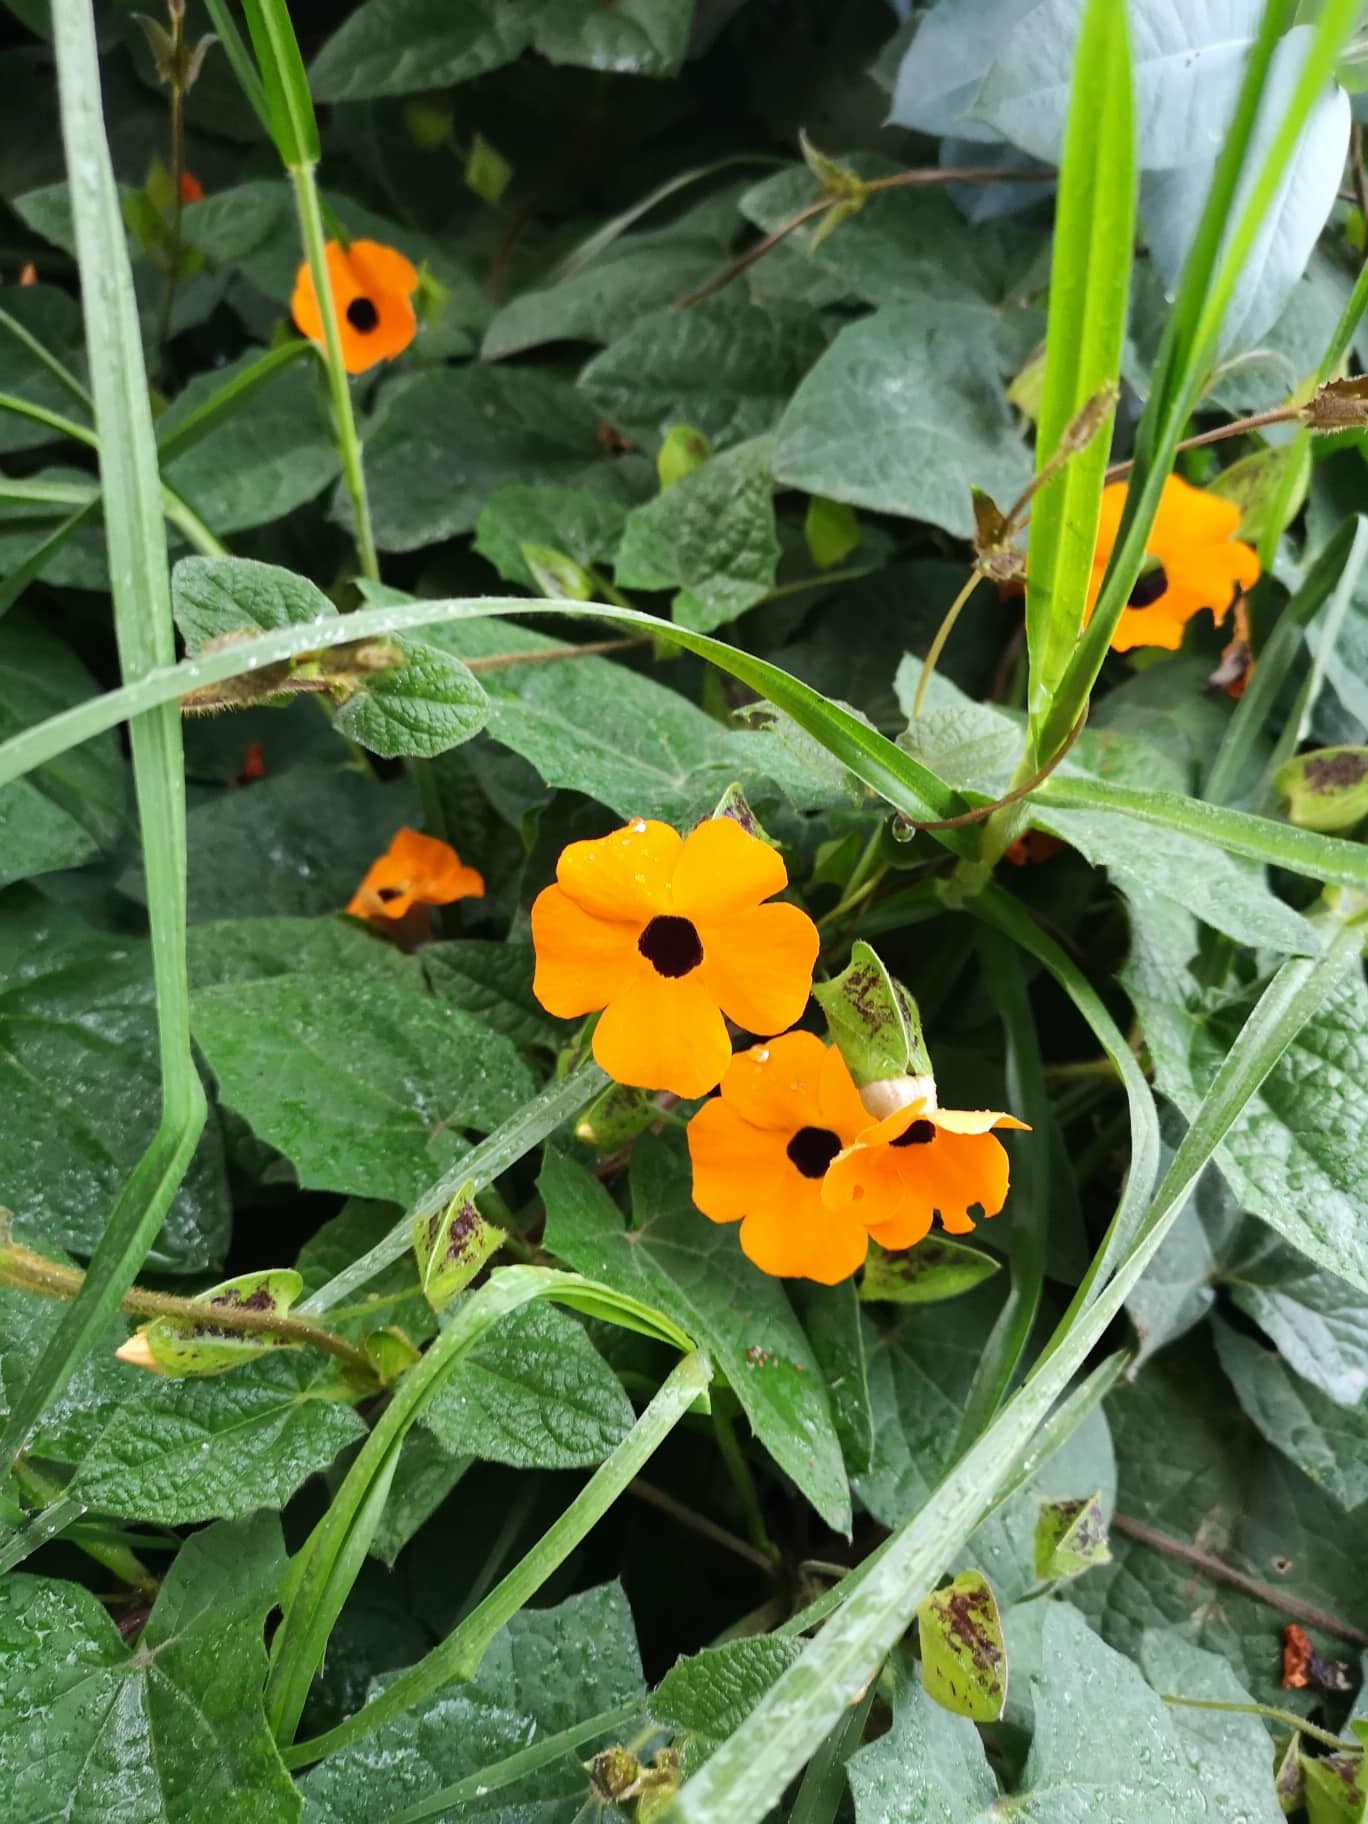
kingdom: Plantae
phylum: Tracheophyta
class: Magnoliopsida
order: Lamiales
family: Acanthaceae
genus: Thunbergia
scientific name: Thunbergia alata
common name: Blackeyed susan vine
